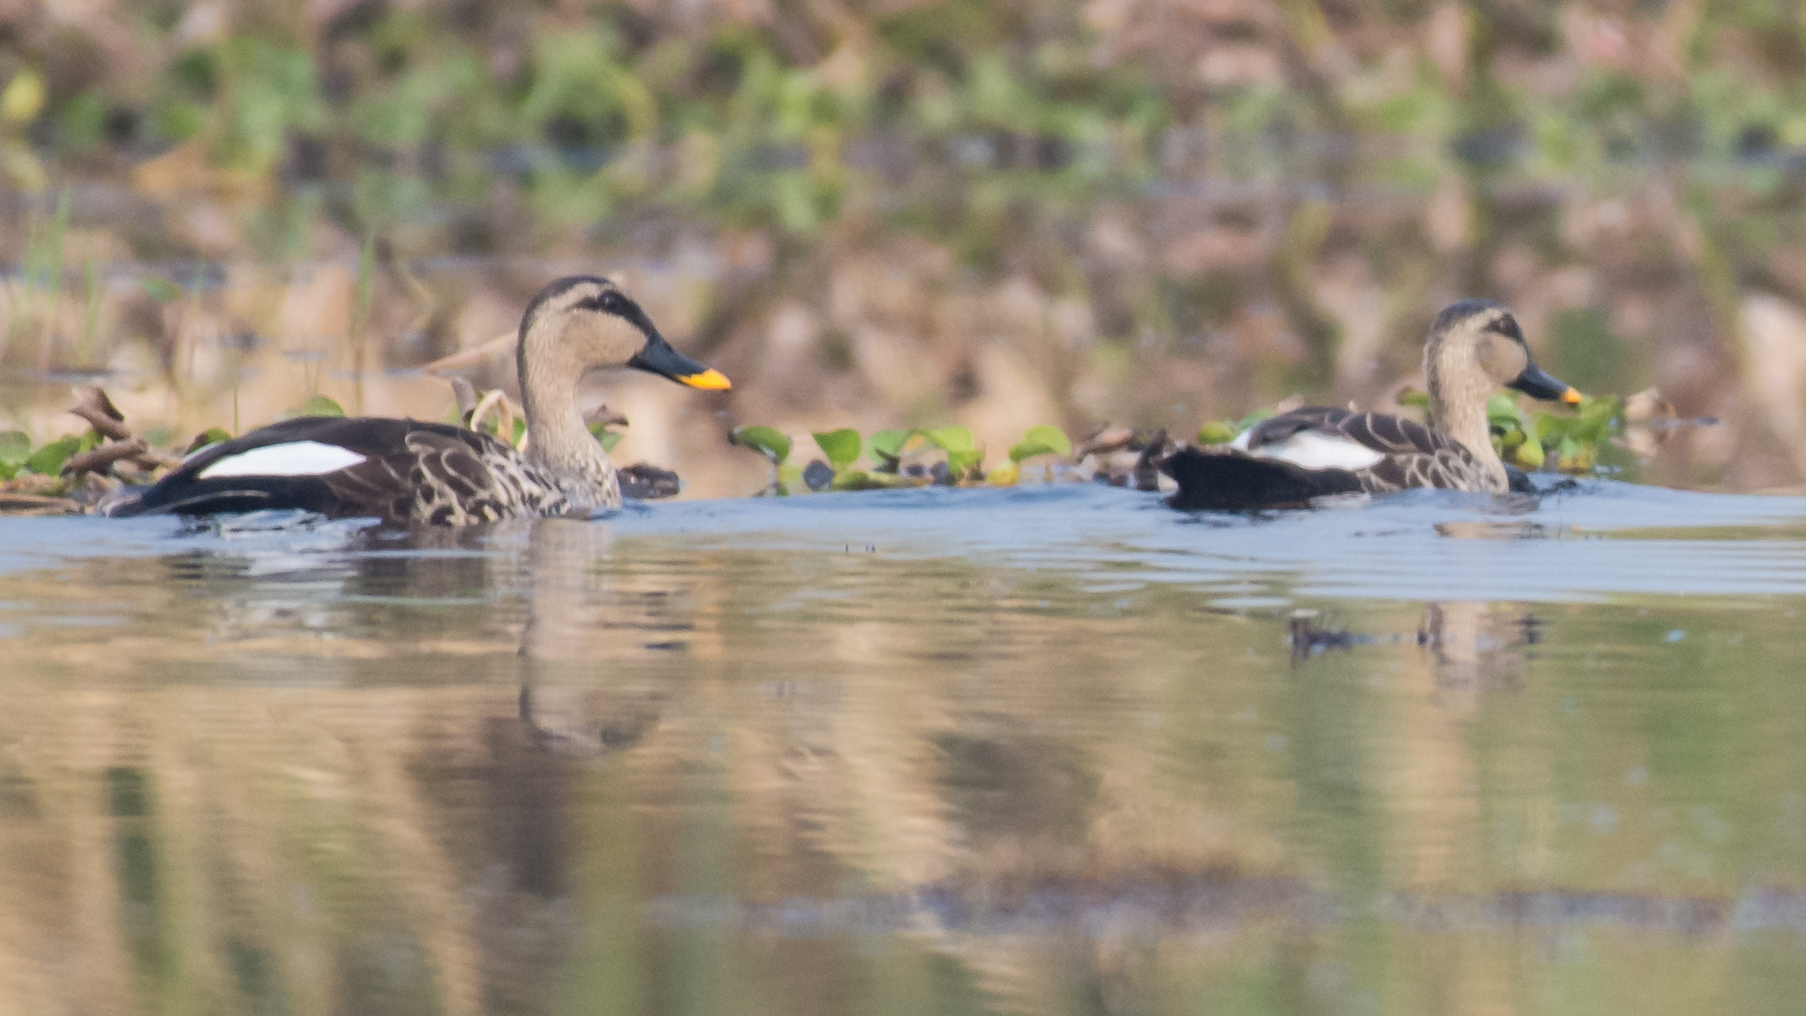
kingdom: Animalia
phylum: Chordata
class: Aves
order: Anseriformes
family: Anatidae
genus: Anas
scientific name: Anas poecilorhyncha
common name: Indian spot-billed duck
